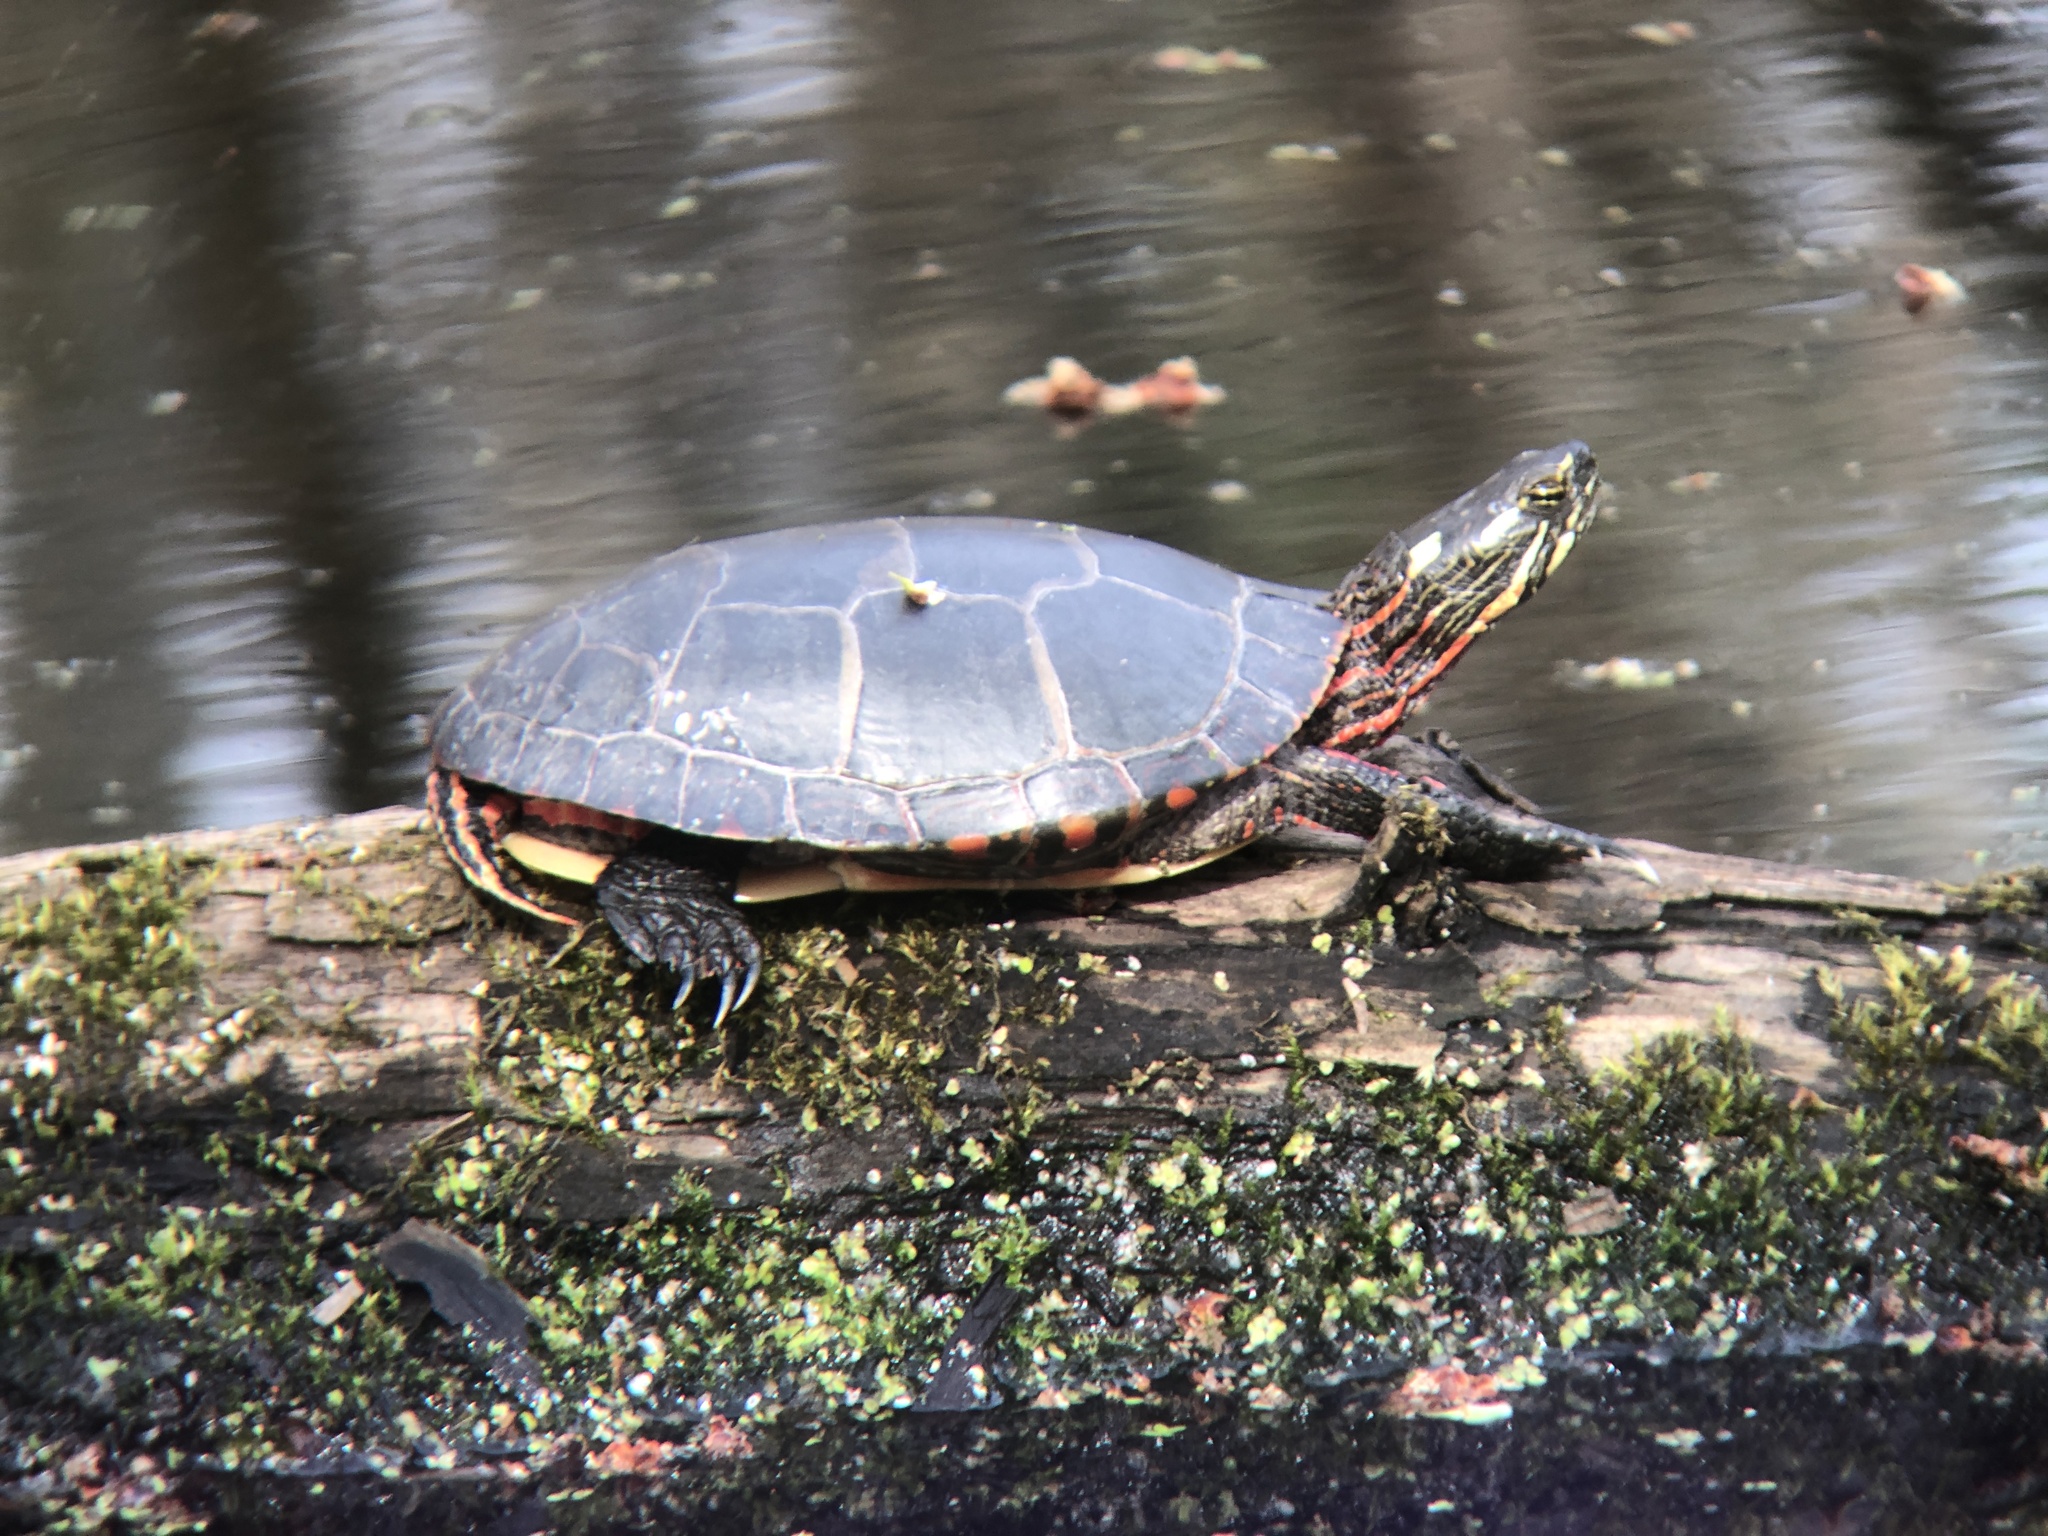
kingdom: Animalia
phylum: Chordata
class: Testudines
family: Emydidae
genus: Chrysemys
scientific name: Chrysemys picta
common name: Painted turtle
